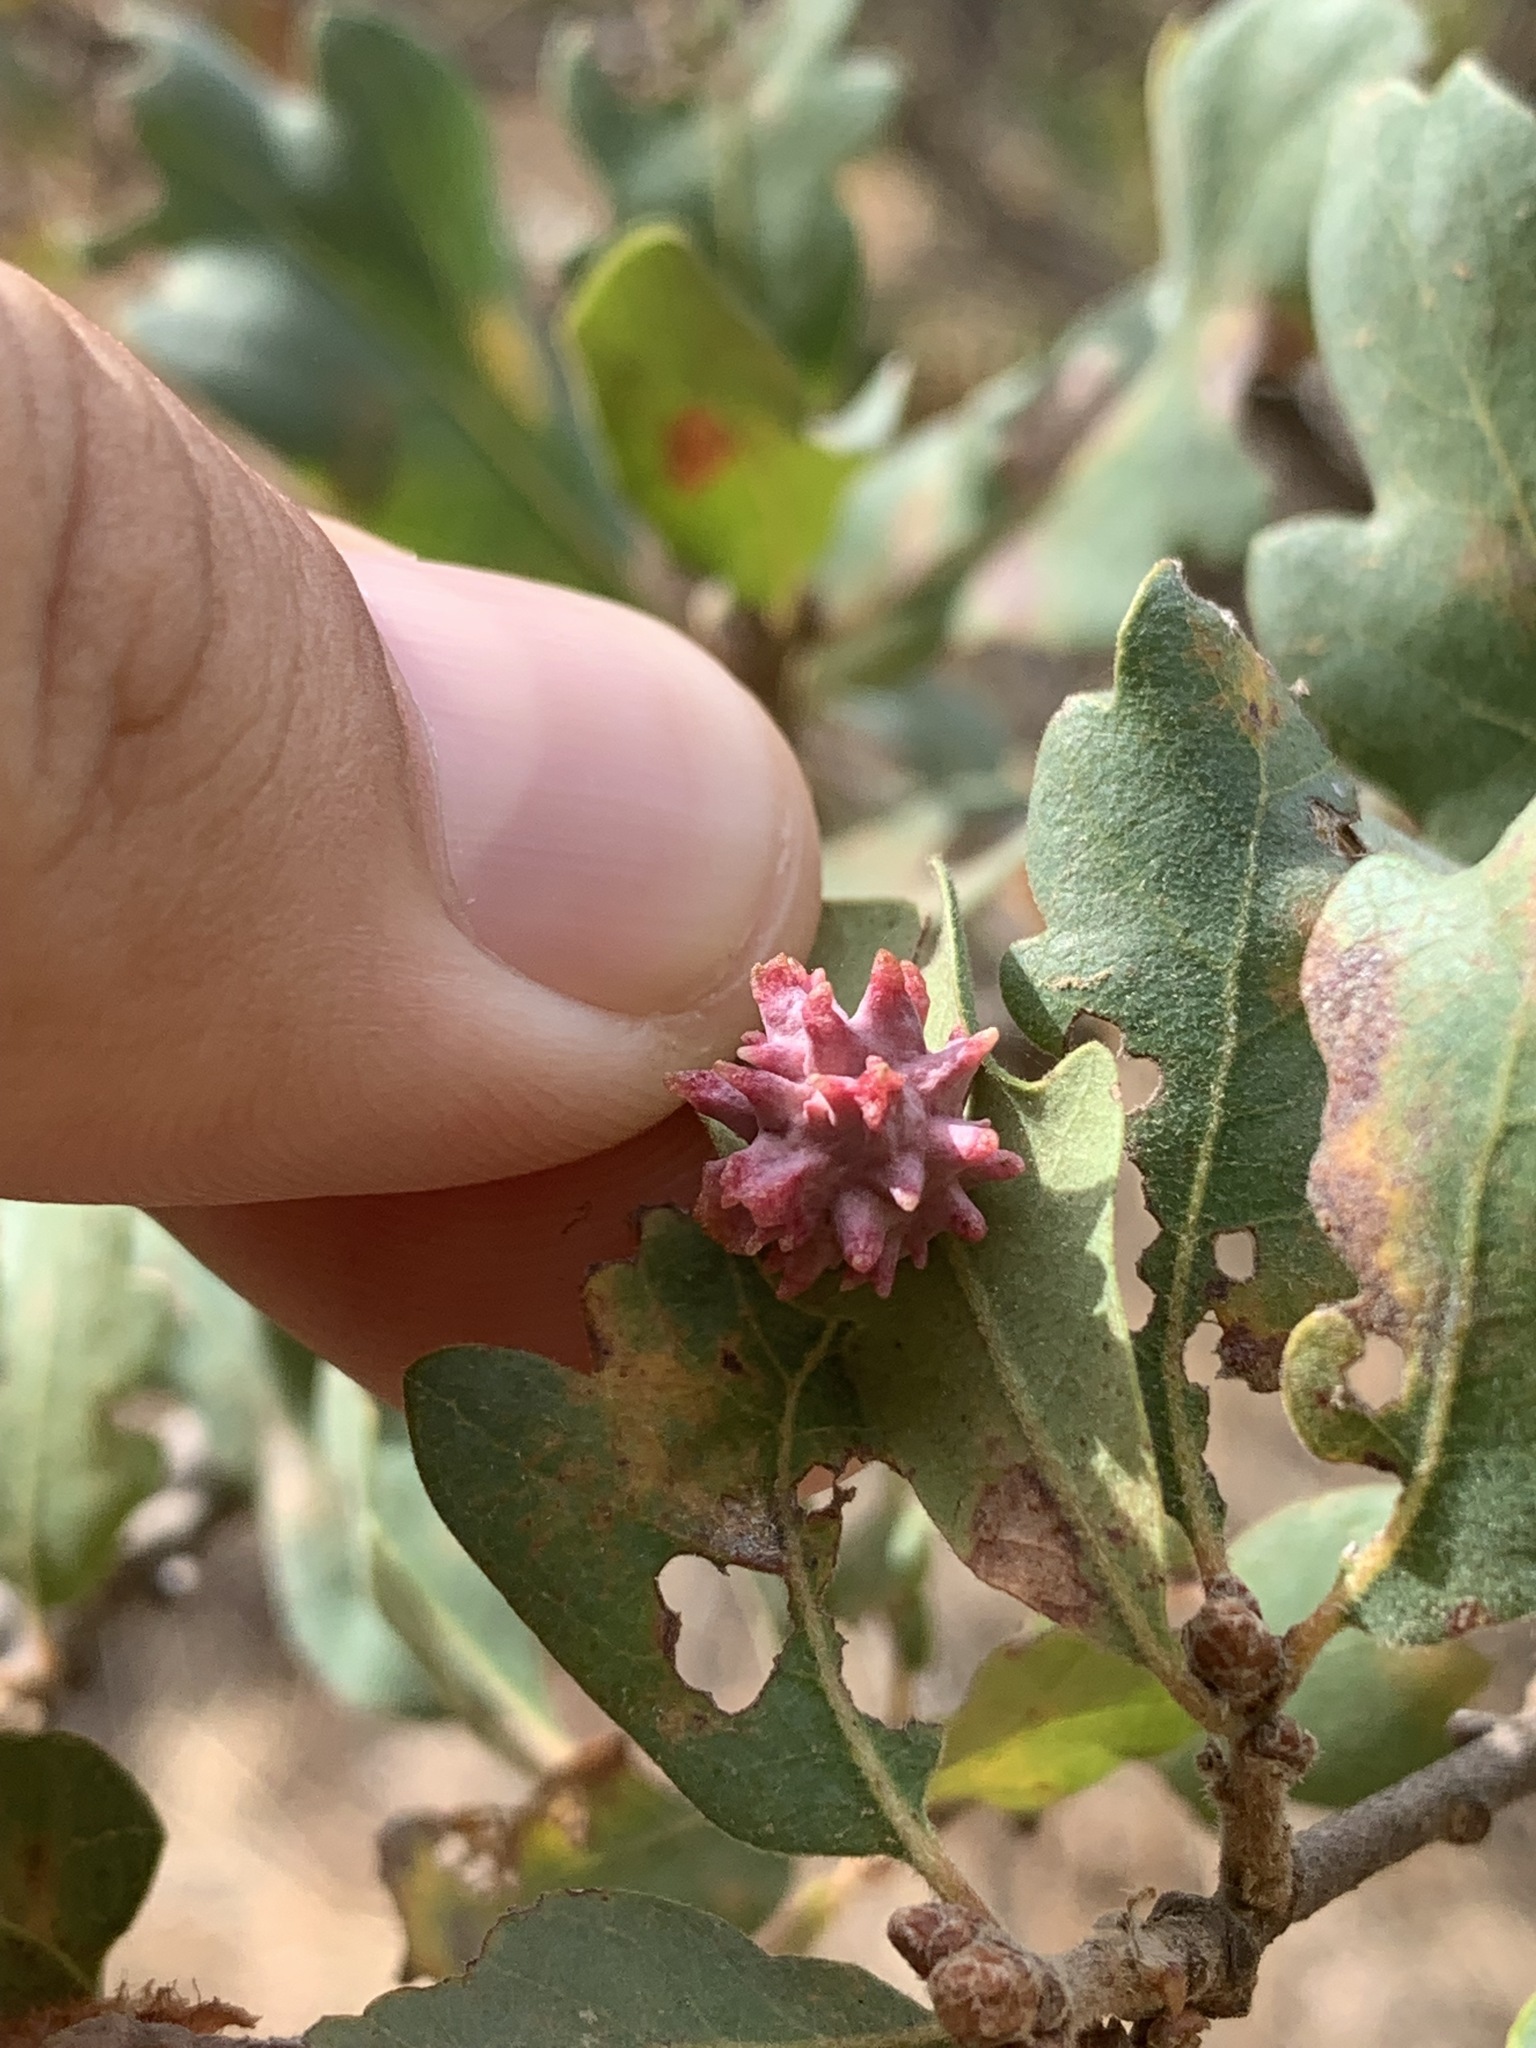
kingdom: Animalia
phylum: Arthropoda
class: Insecta
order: Hymenoptera
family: Cynipidae
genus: Cynips
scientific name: Cynips
